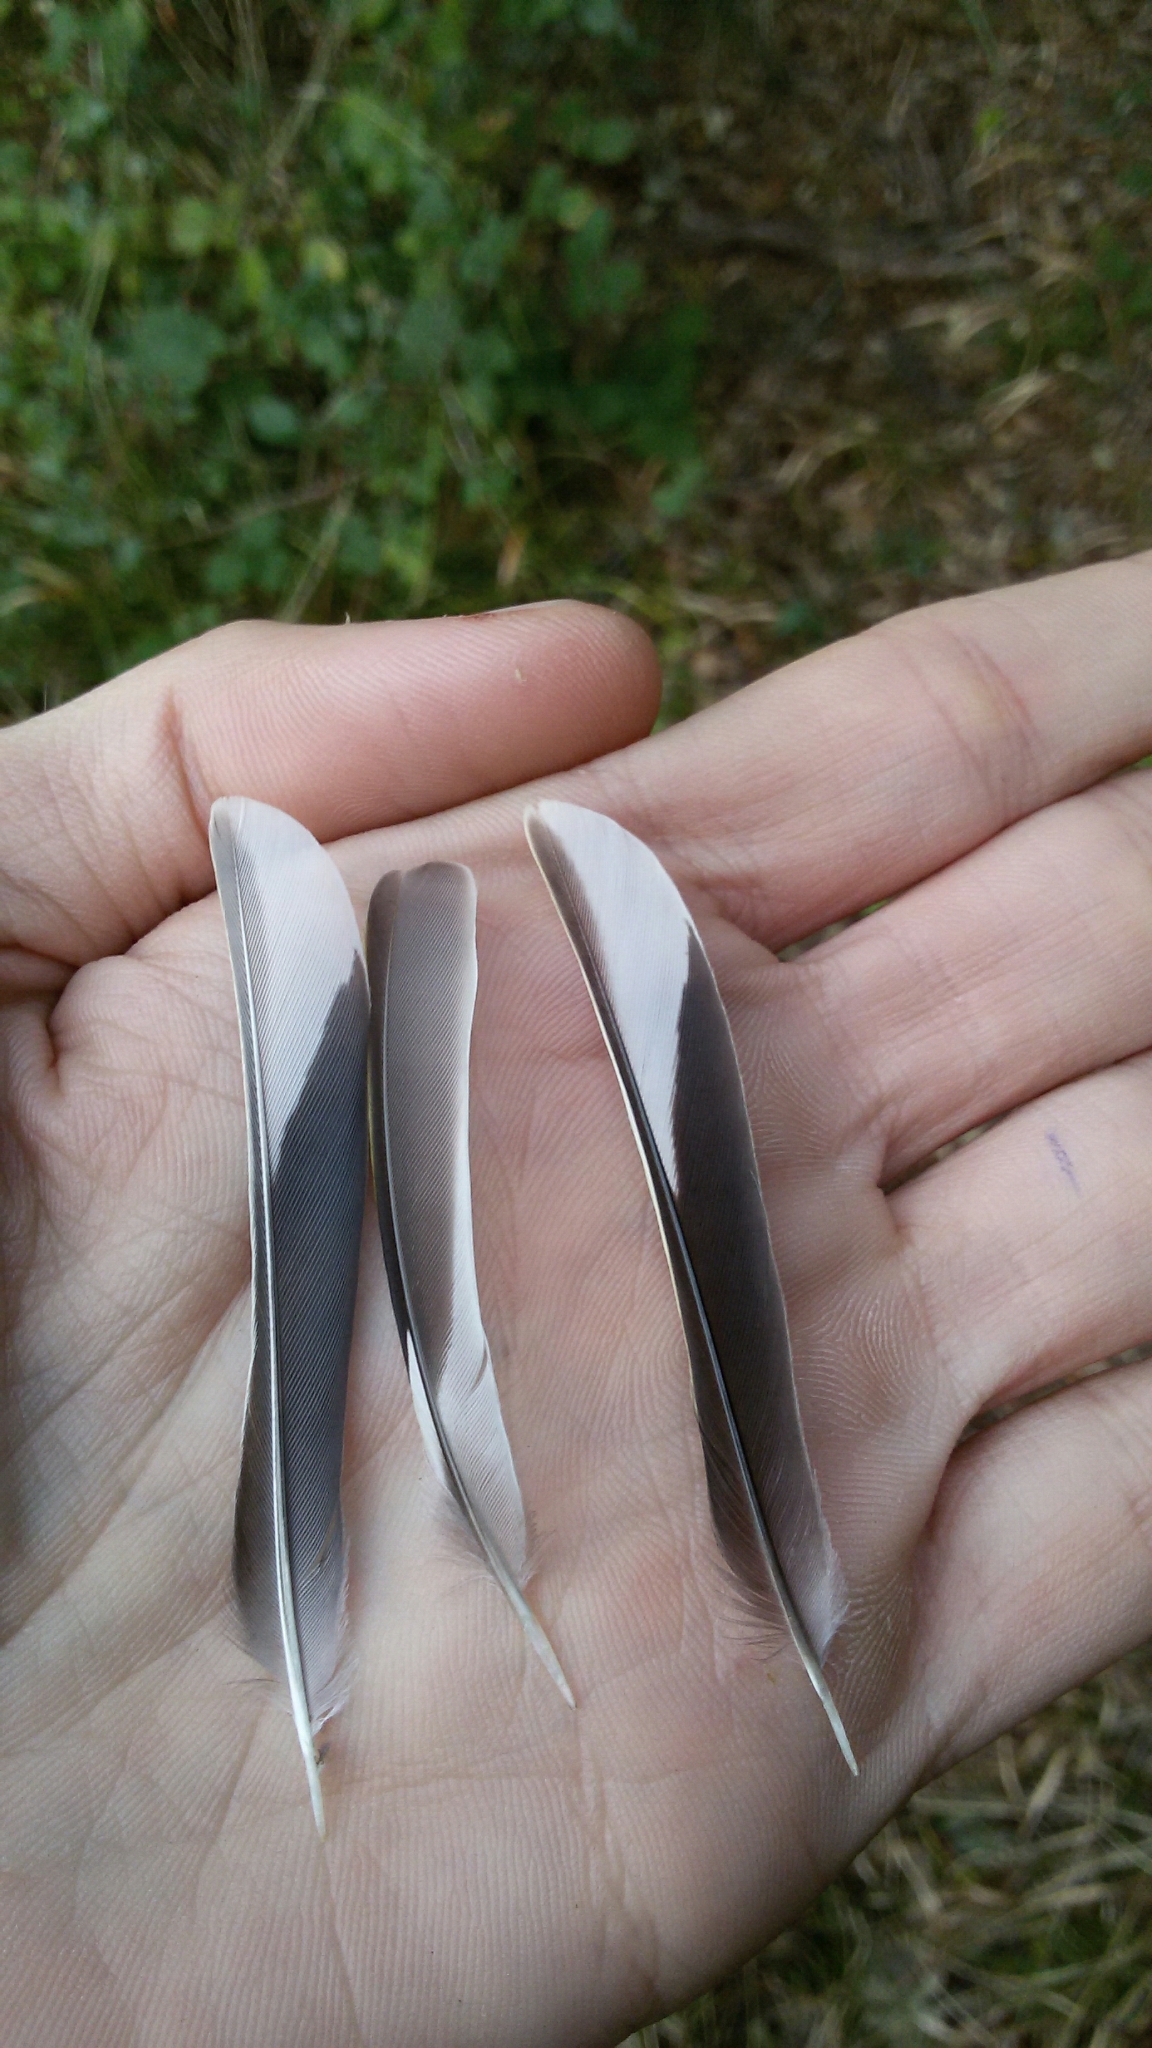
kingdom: Animalia
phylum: Chordata
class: Aves
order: Passeriformes
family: Fringillidae
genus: Fringilla
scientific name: Fringilla coelebs
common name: Common chaffinch
